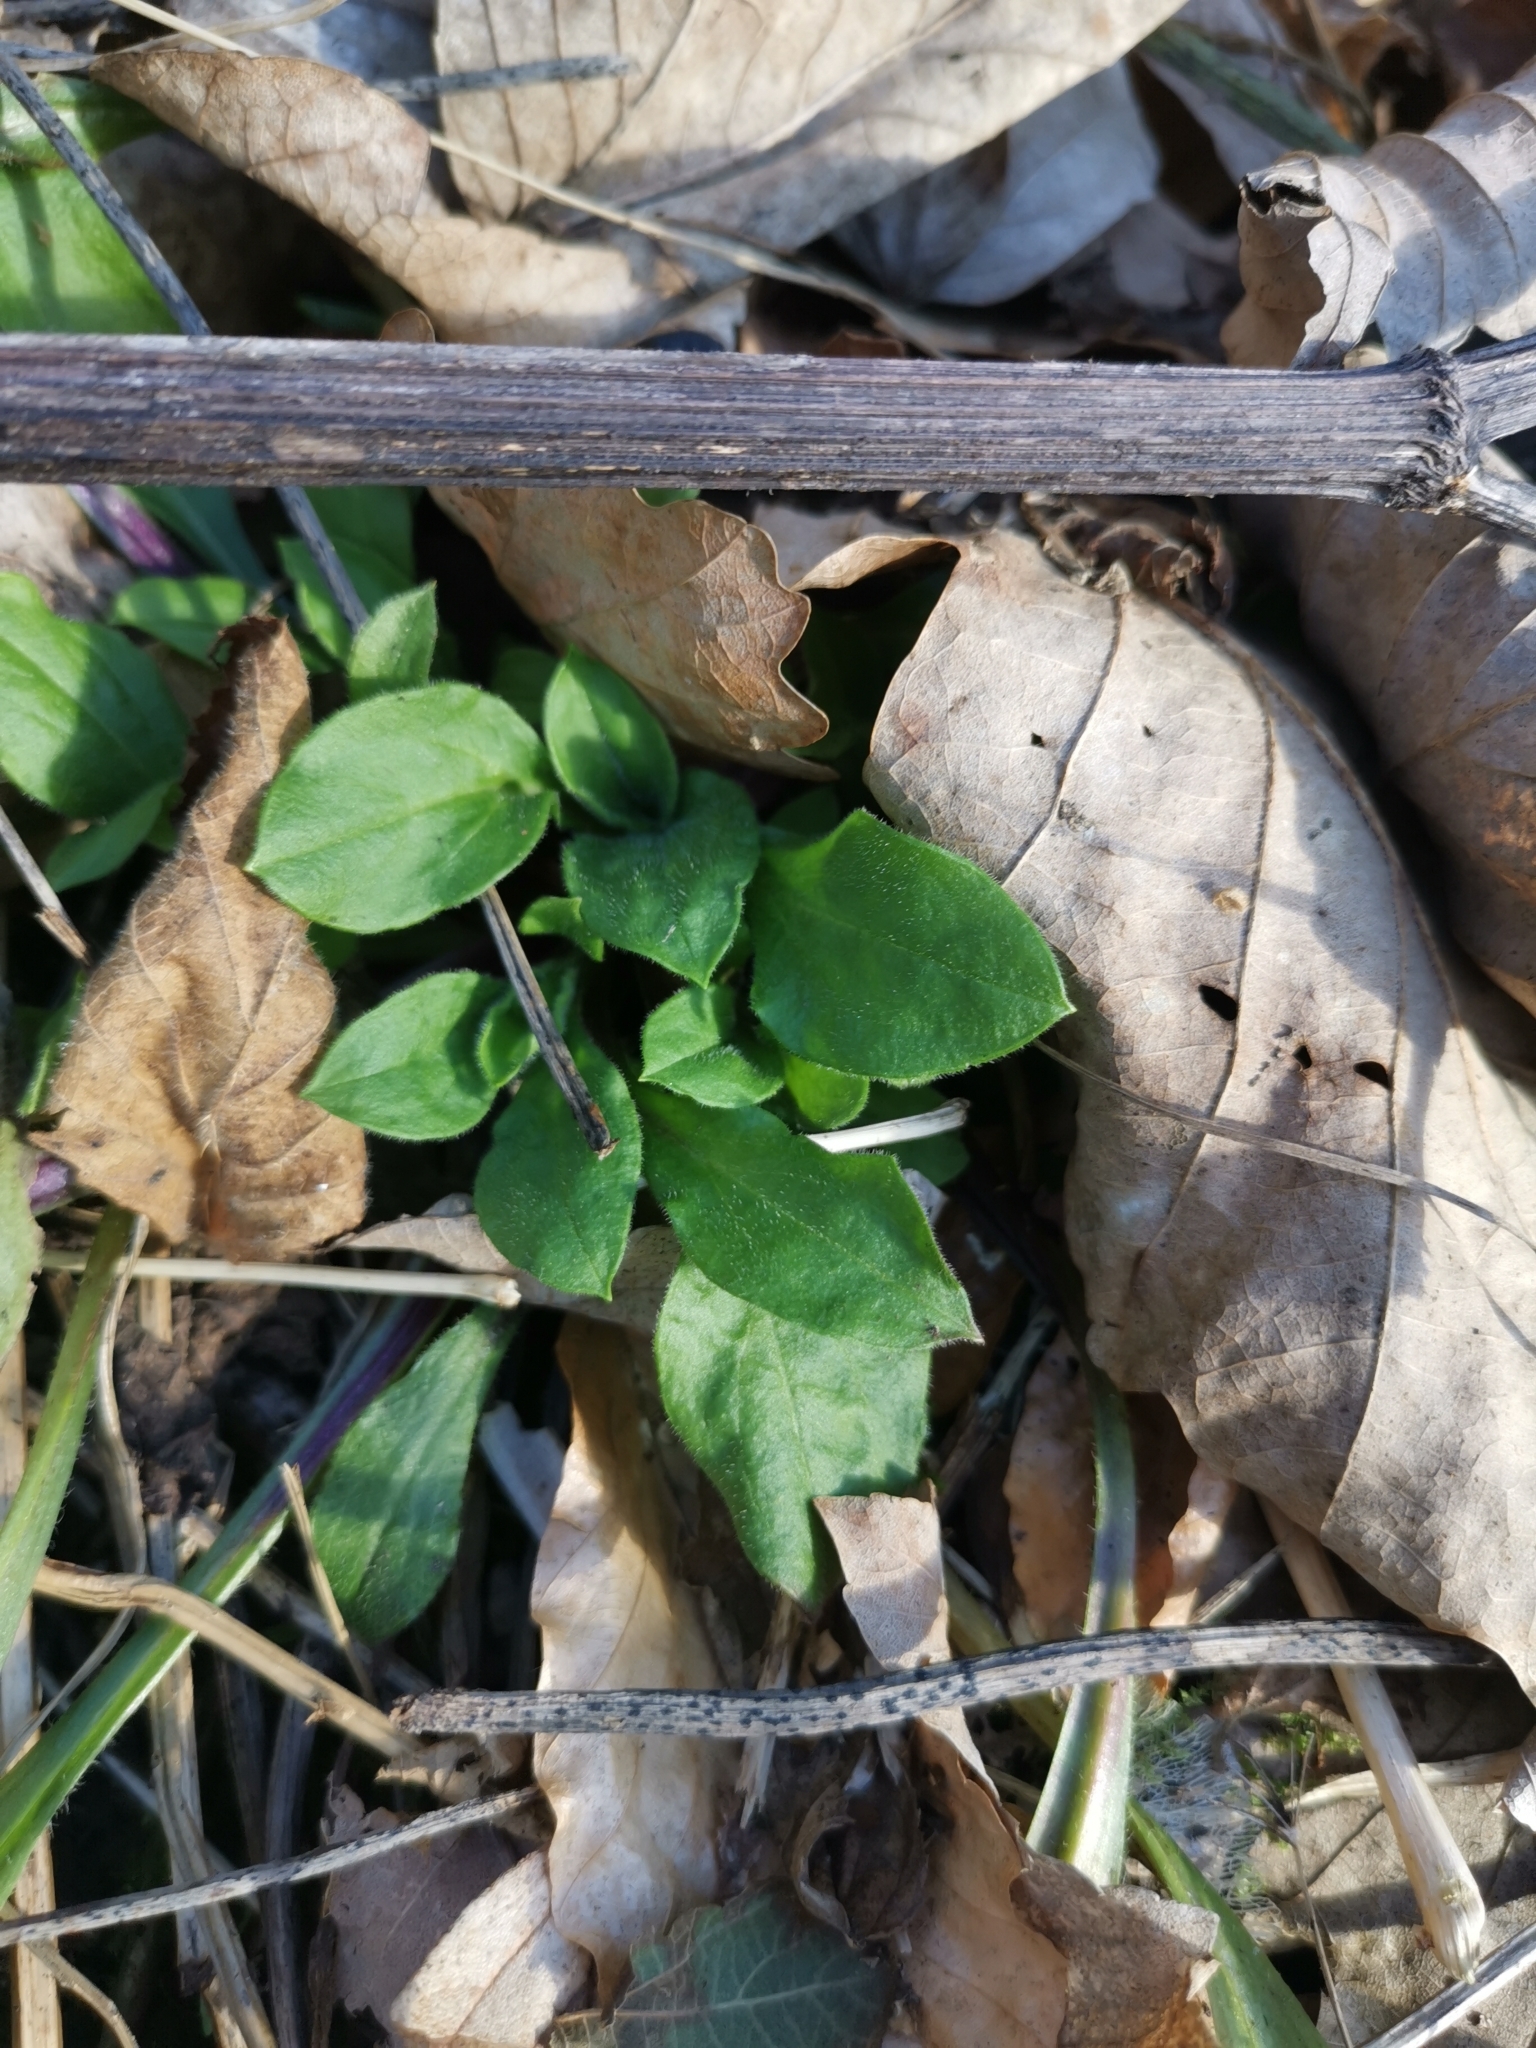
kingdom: Plantae
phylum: Tracheophyta
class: Magnoliopsida
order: Caryophyllales
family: Caryophyllaceae
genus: Silene
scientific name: Silene dioica
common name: Red campion
